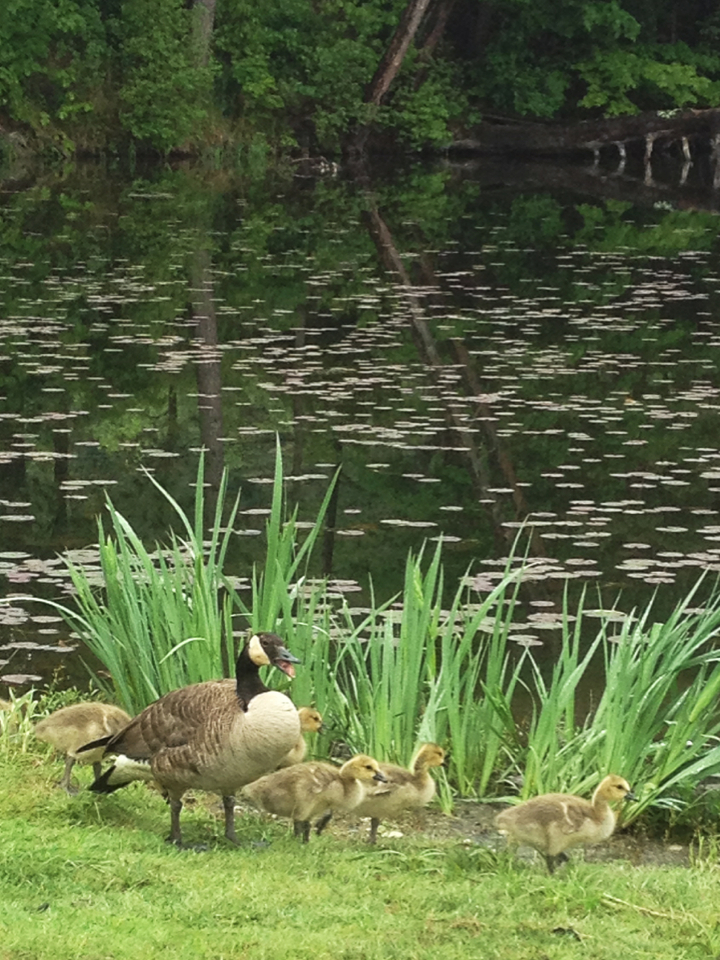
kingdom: Animalia
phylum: Chordata
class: Aves
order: Anseriformes
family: Anatidae
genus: Branta
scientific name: Branta canadensis
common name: Canada goose
